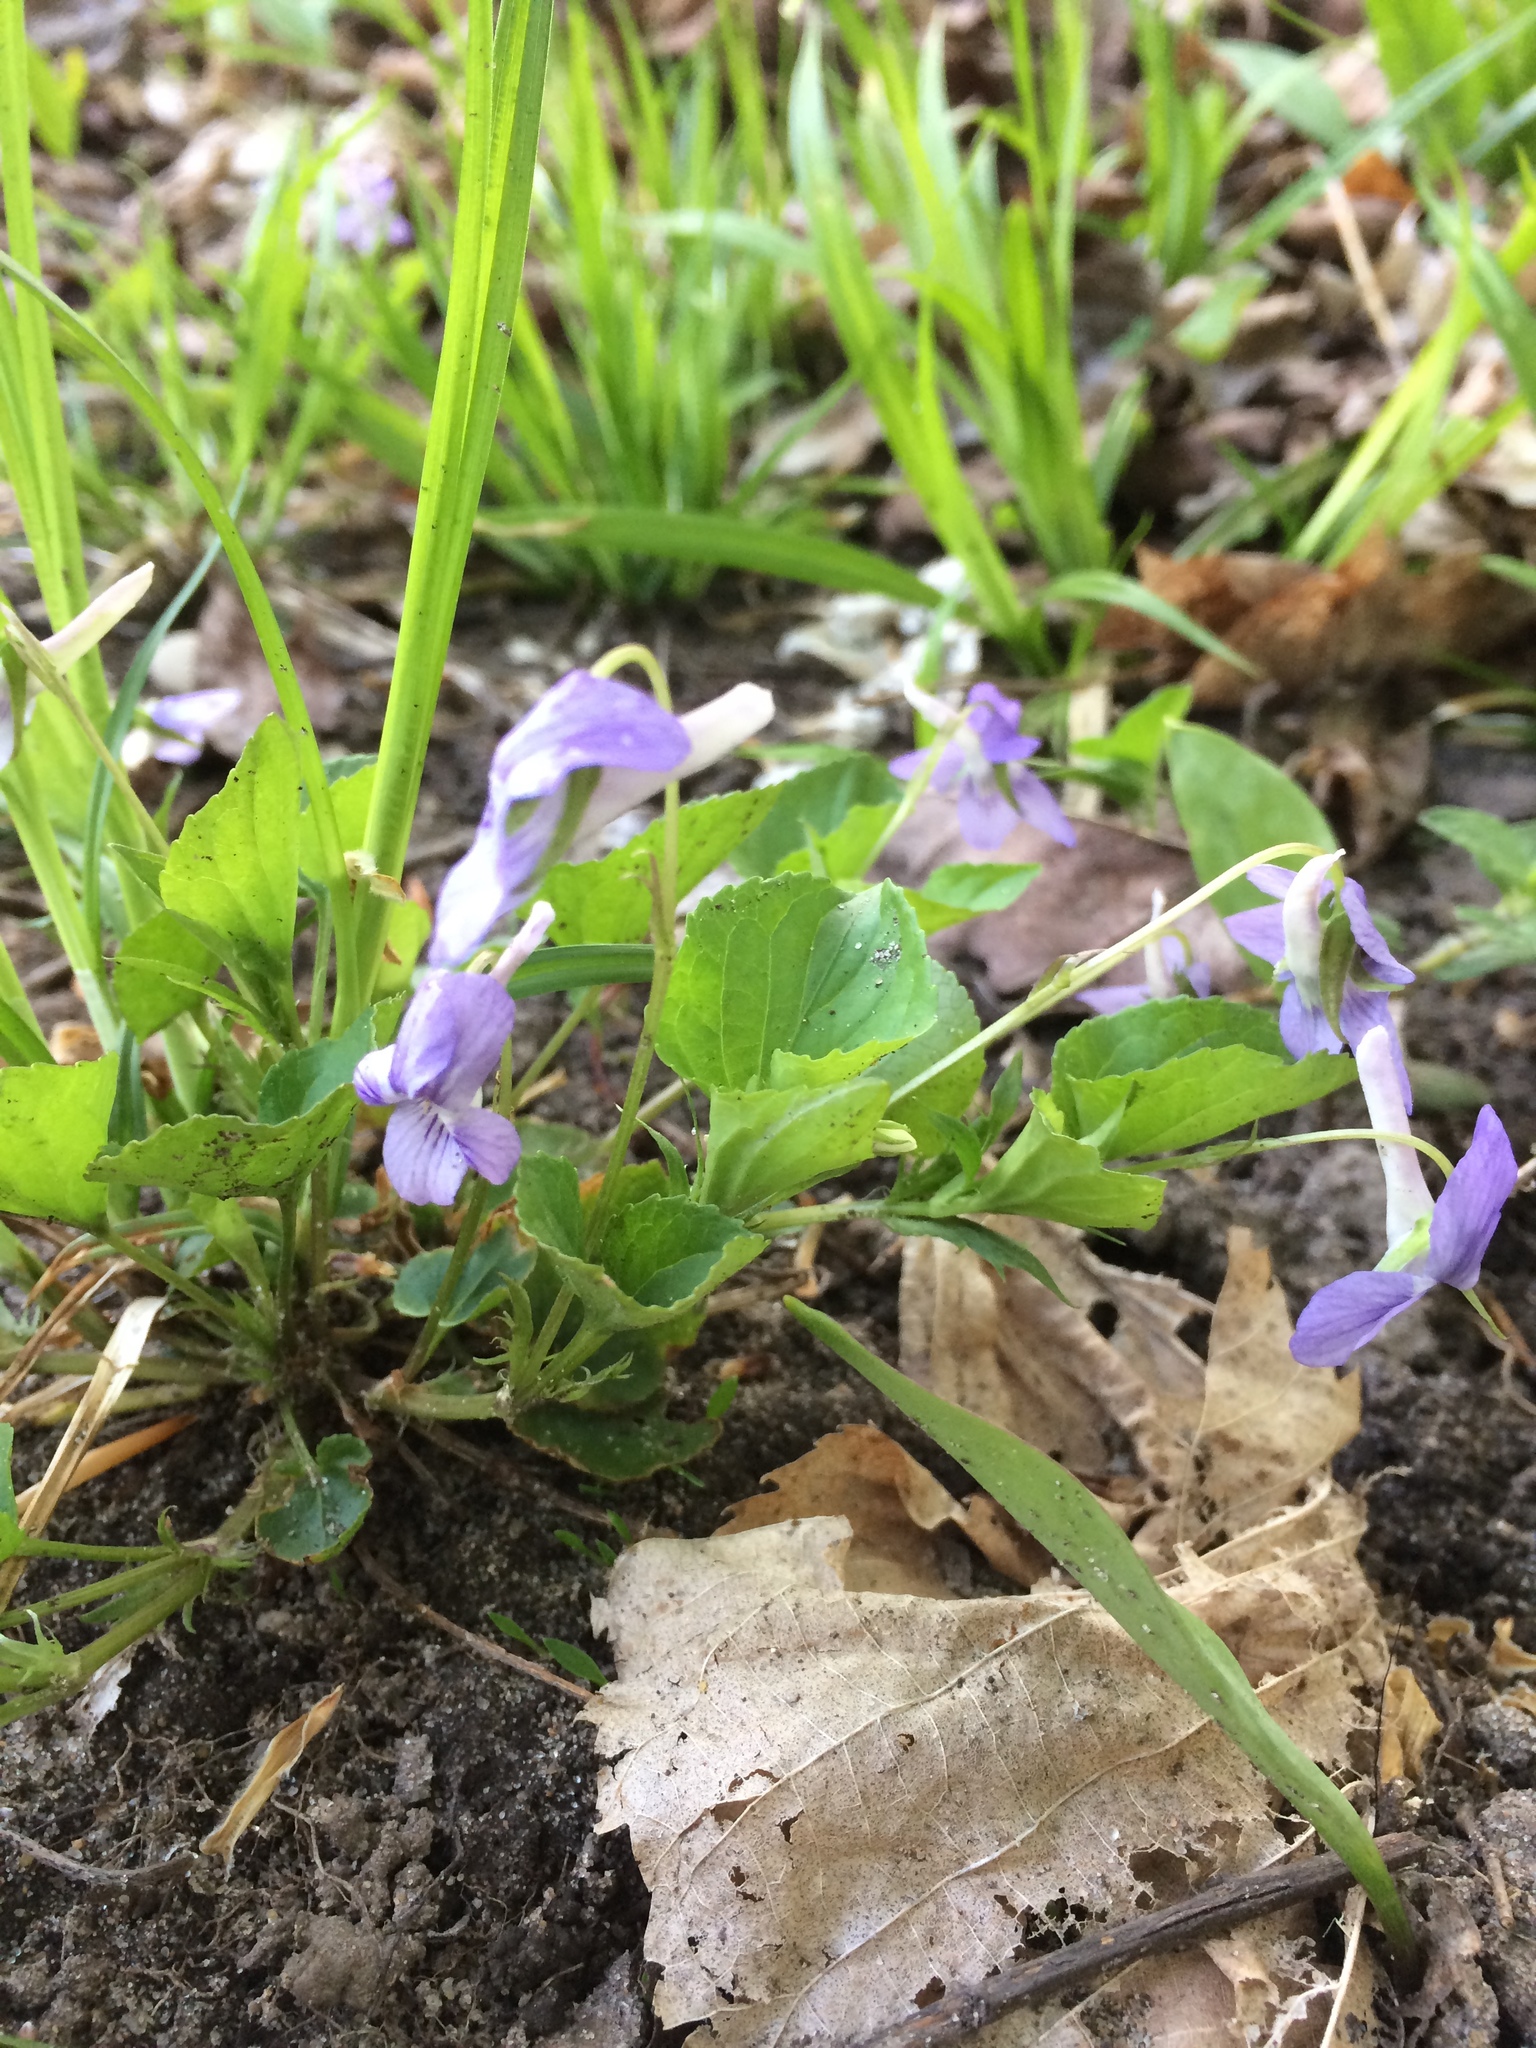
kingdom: Plantae
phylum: Tracheophyta
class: Magnoliopsida
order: Malpighiales
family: Violaceae
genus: Viola
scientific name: Viola rostrata
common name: Long-spur violet
